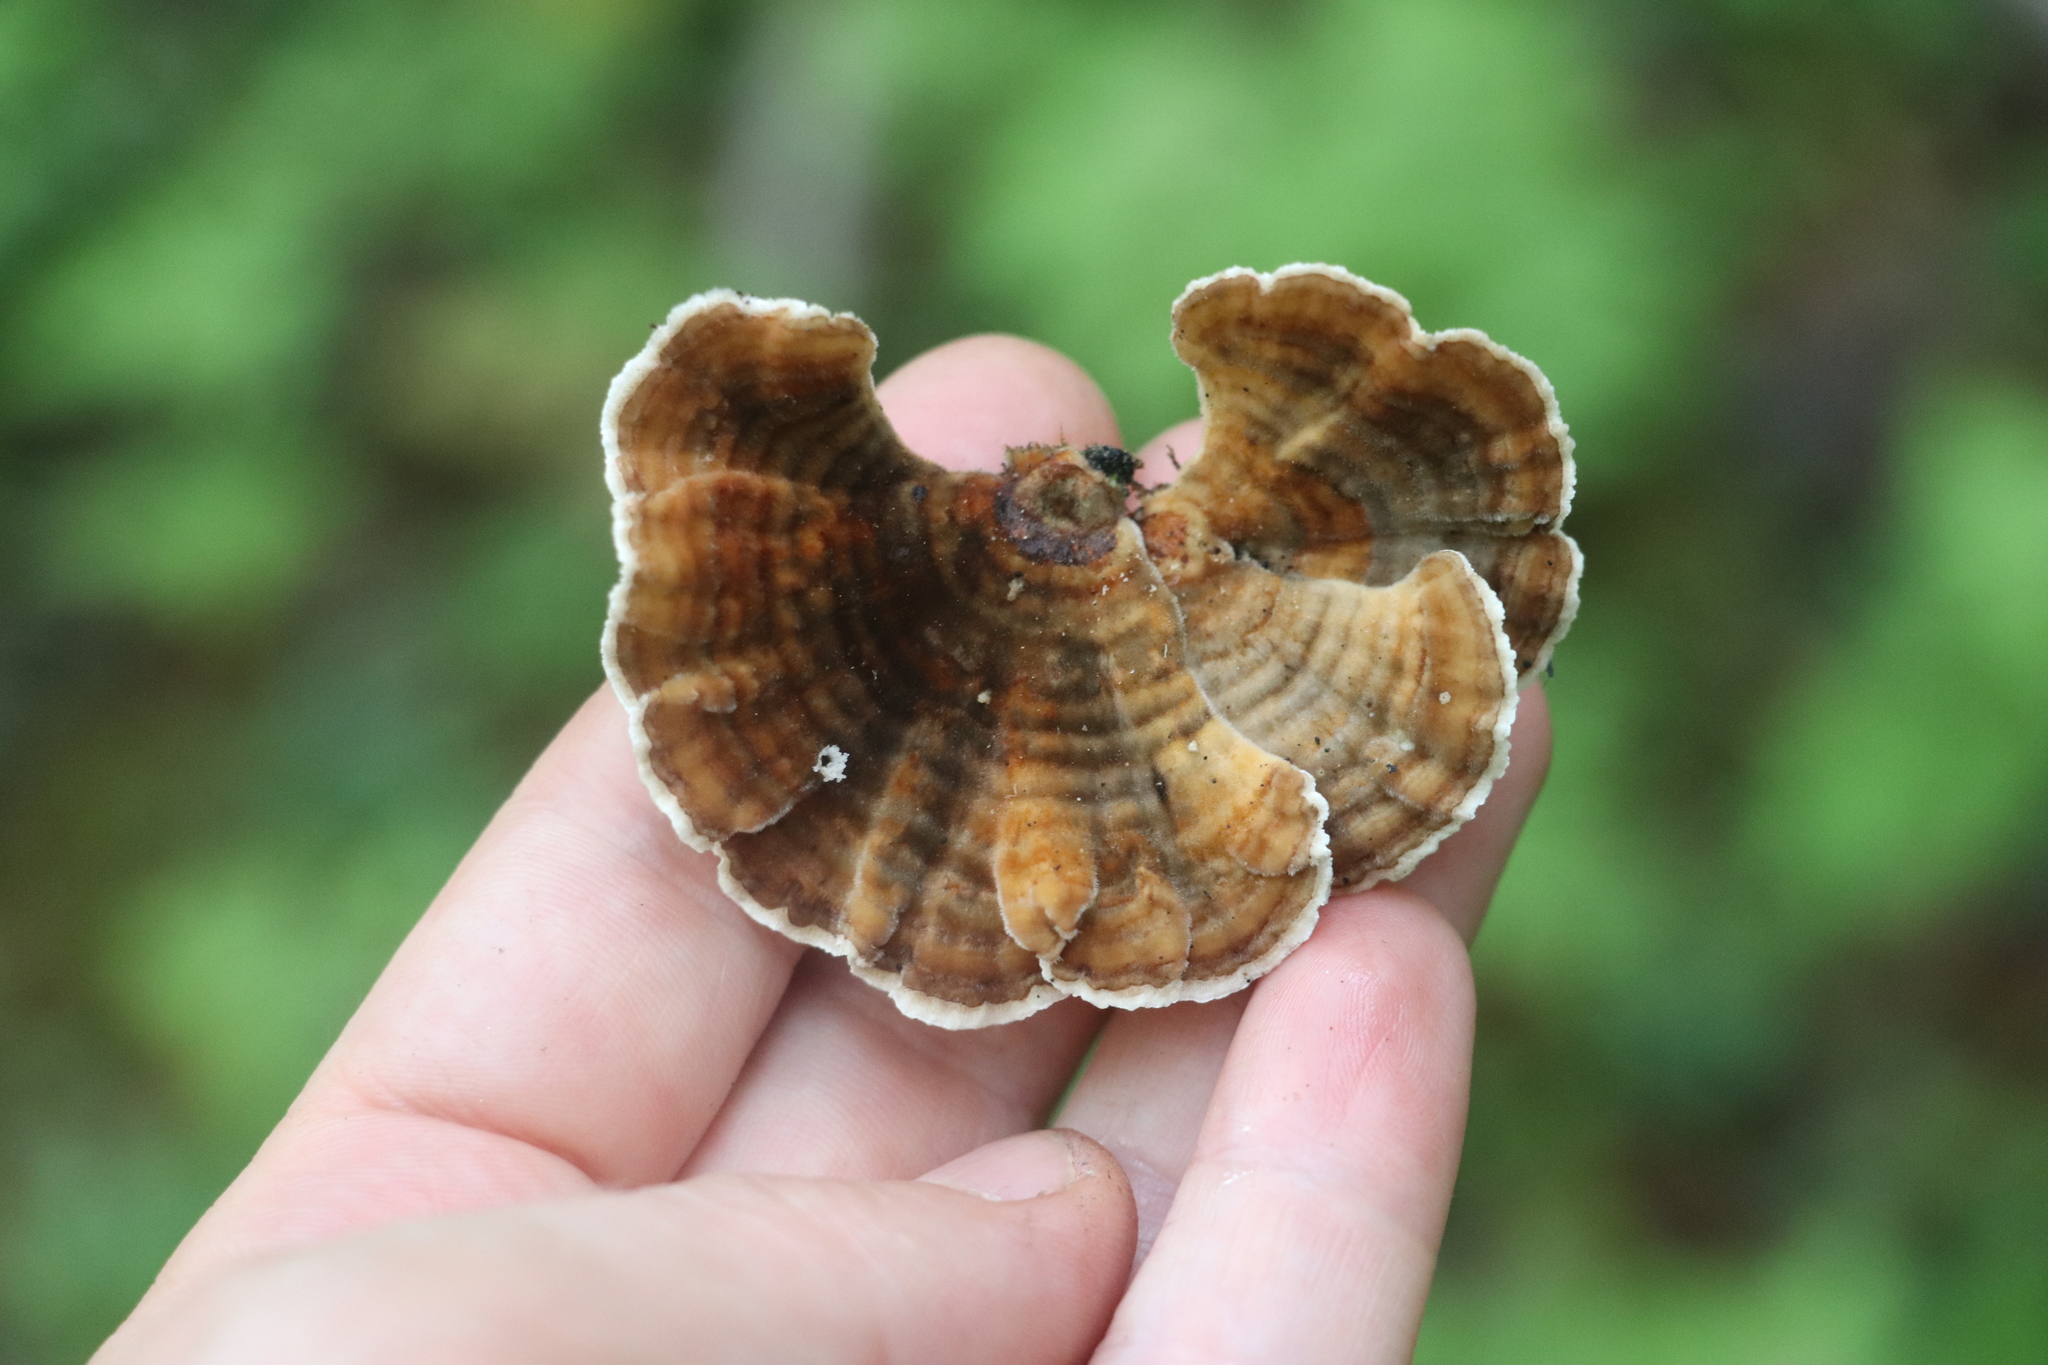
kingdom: Fungi
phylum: Basidiomycota
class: Agaricomycetes
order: Polyporales
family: Polyporaceae
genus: Trametes
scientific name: Trametes versicolor
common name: Turkeytail
